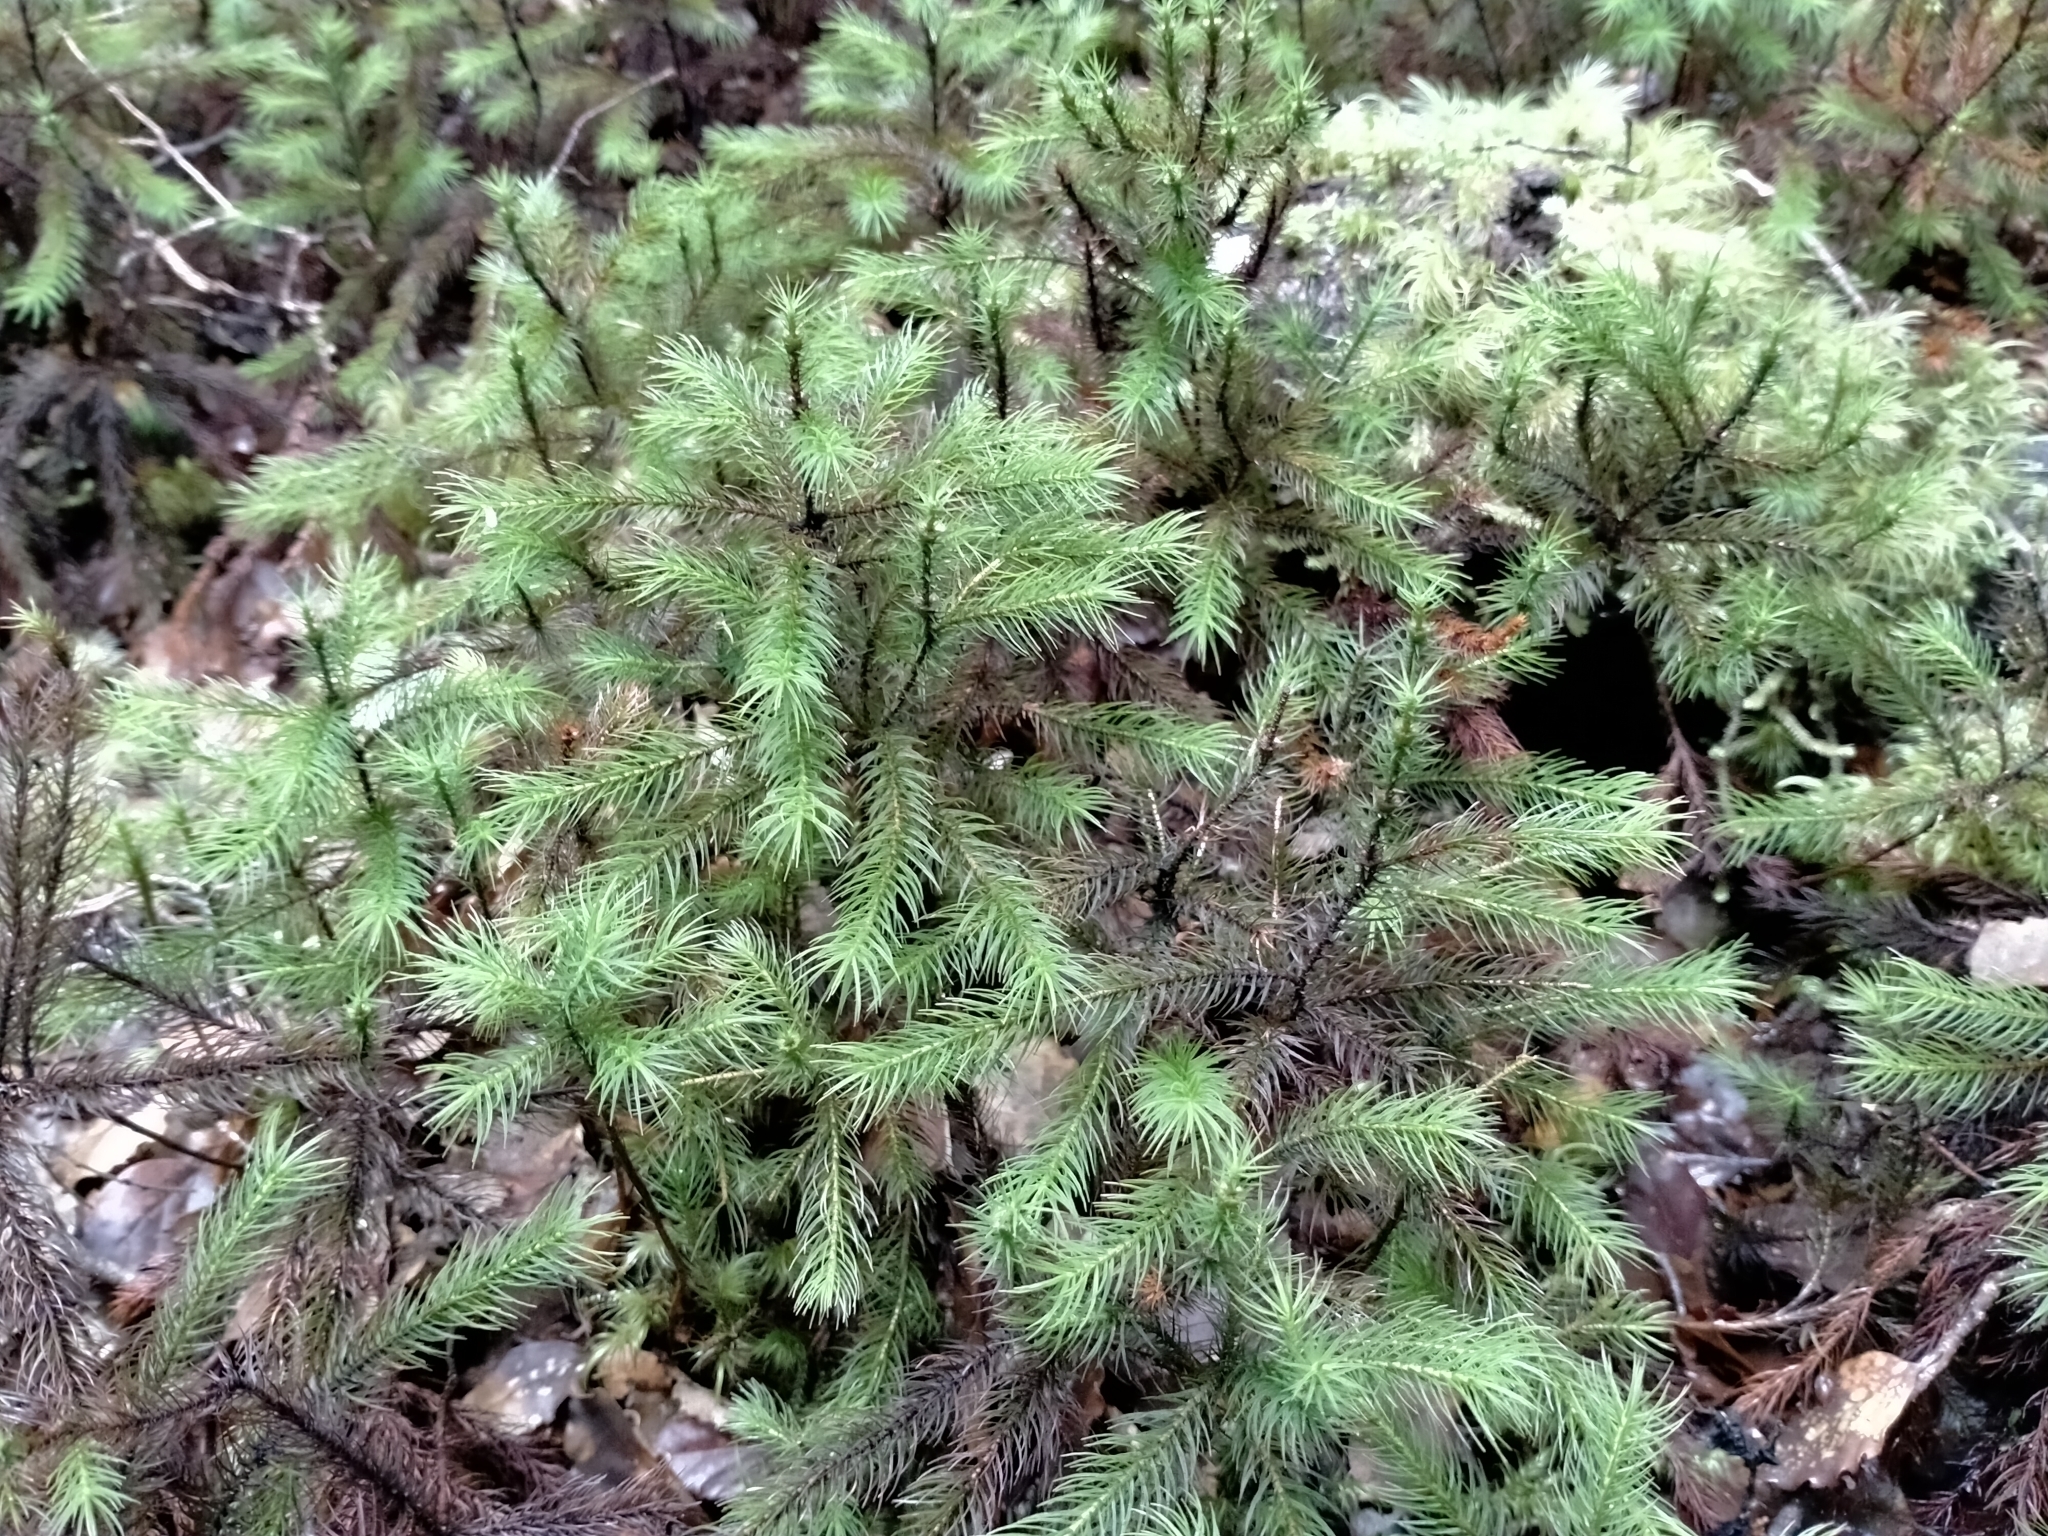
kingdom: Plantae
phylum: Bryophyta
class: Polytrichopsida
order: Polytrichales
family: Polytrichaceae
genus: Dendroligotrichum
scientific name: Dendroligotrichum tongariroense
